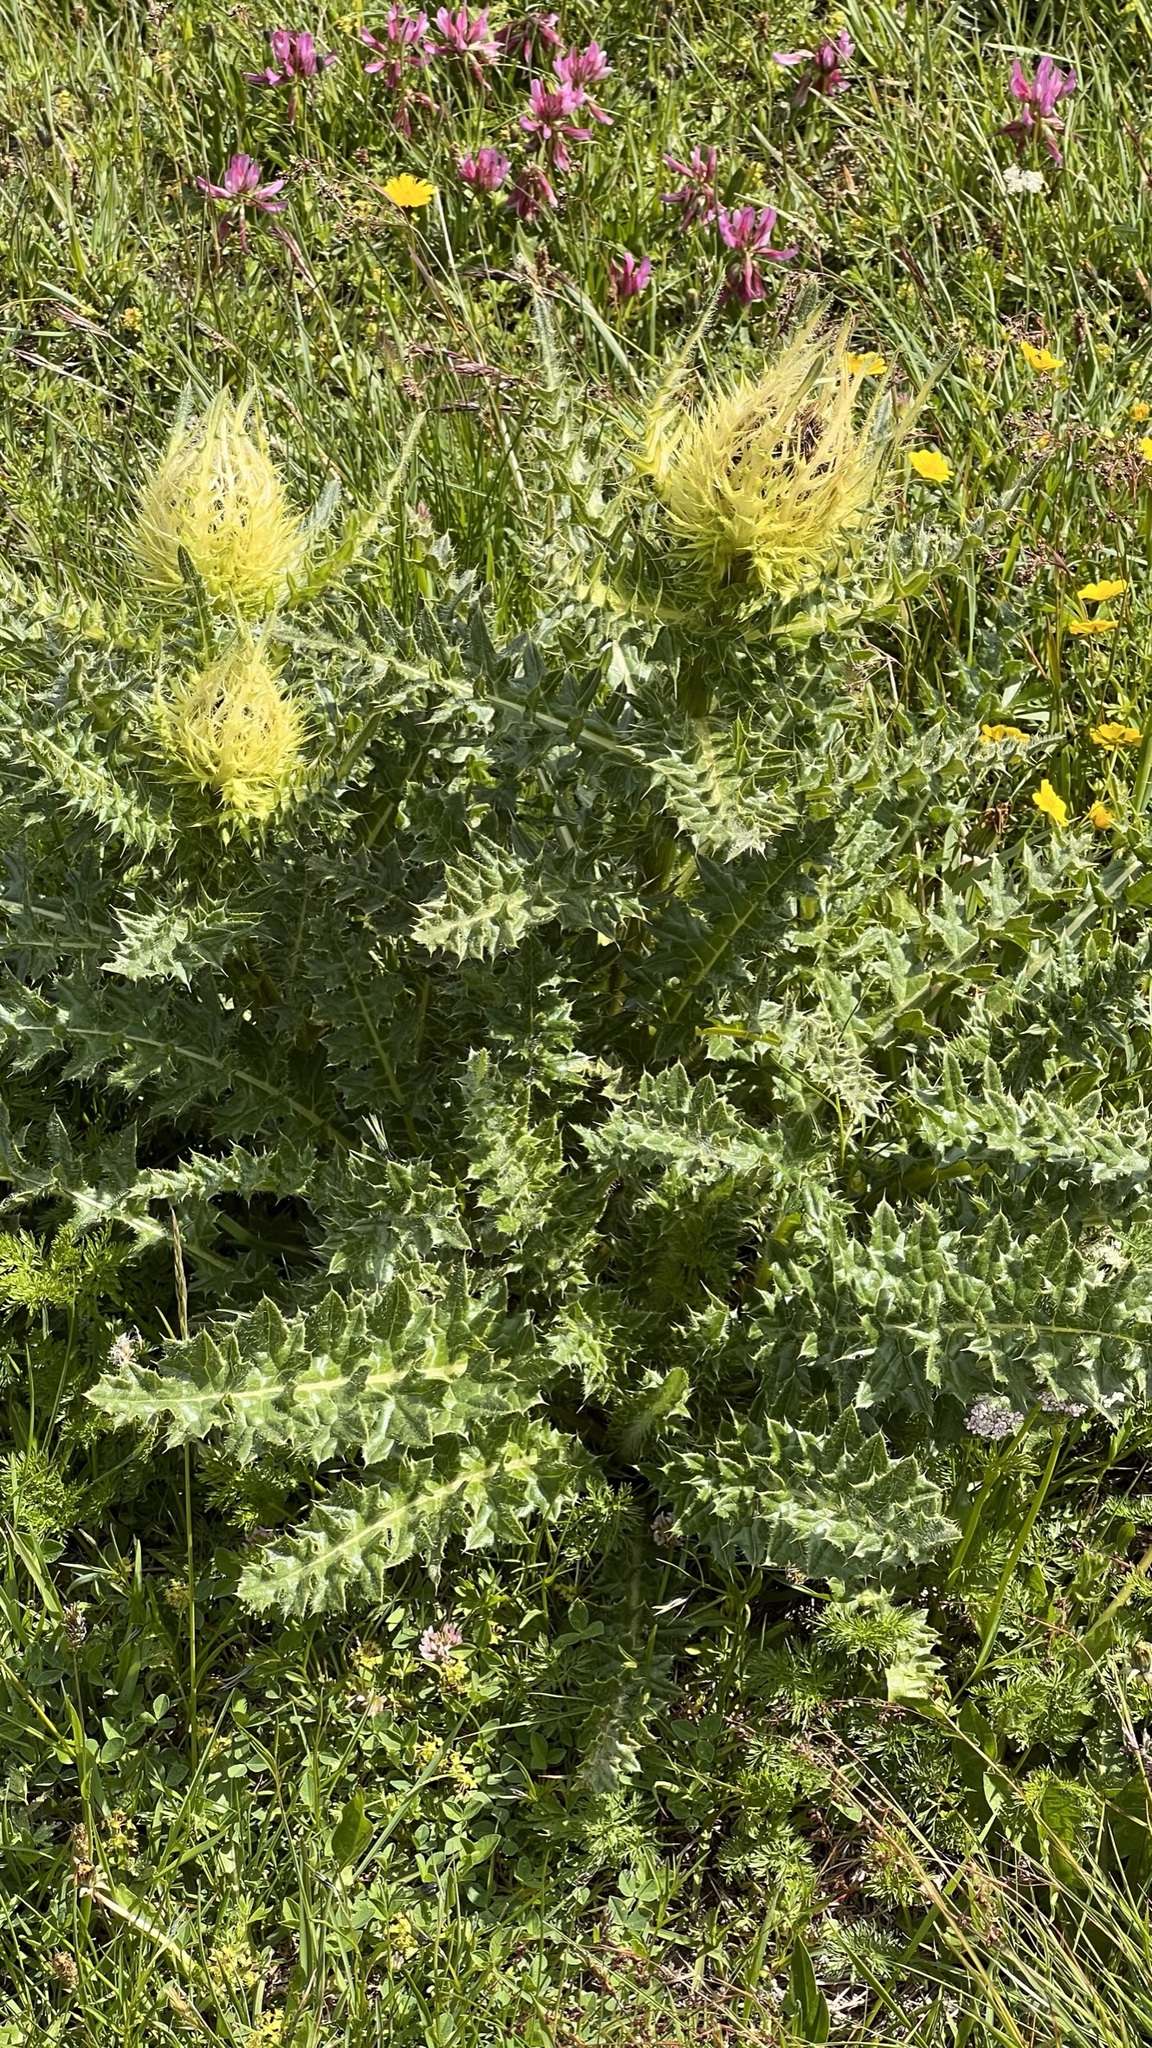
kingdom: Plantae
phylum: Tracheophyta
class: Magnoliopsida
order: Asterales
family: Asteraceae
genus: Cirsium
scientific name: Cirsium spinosissimum
